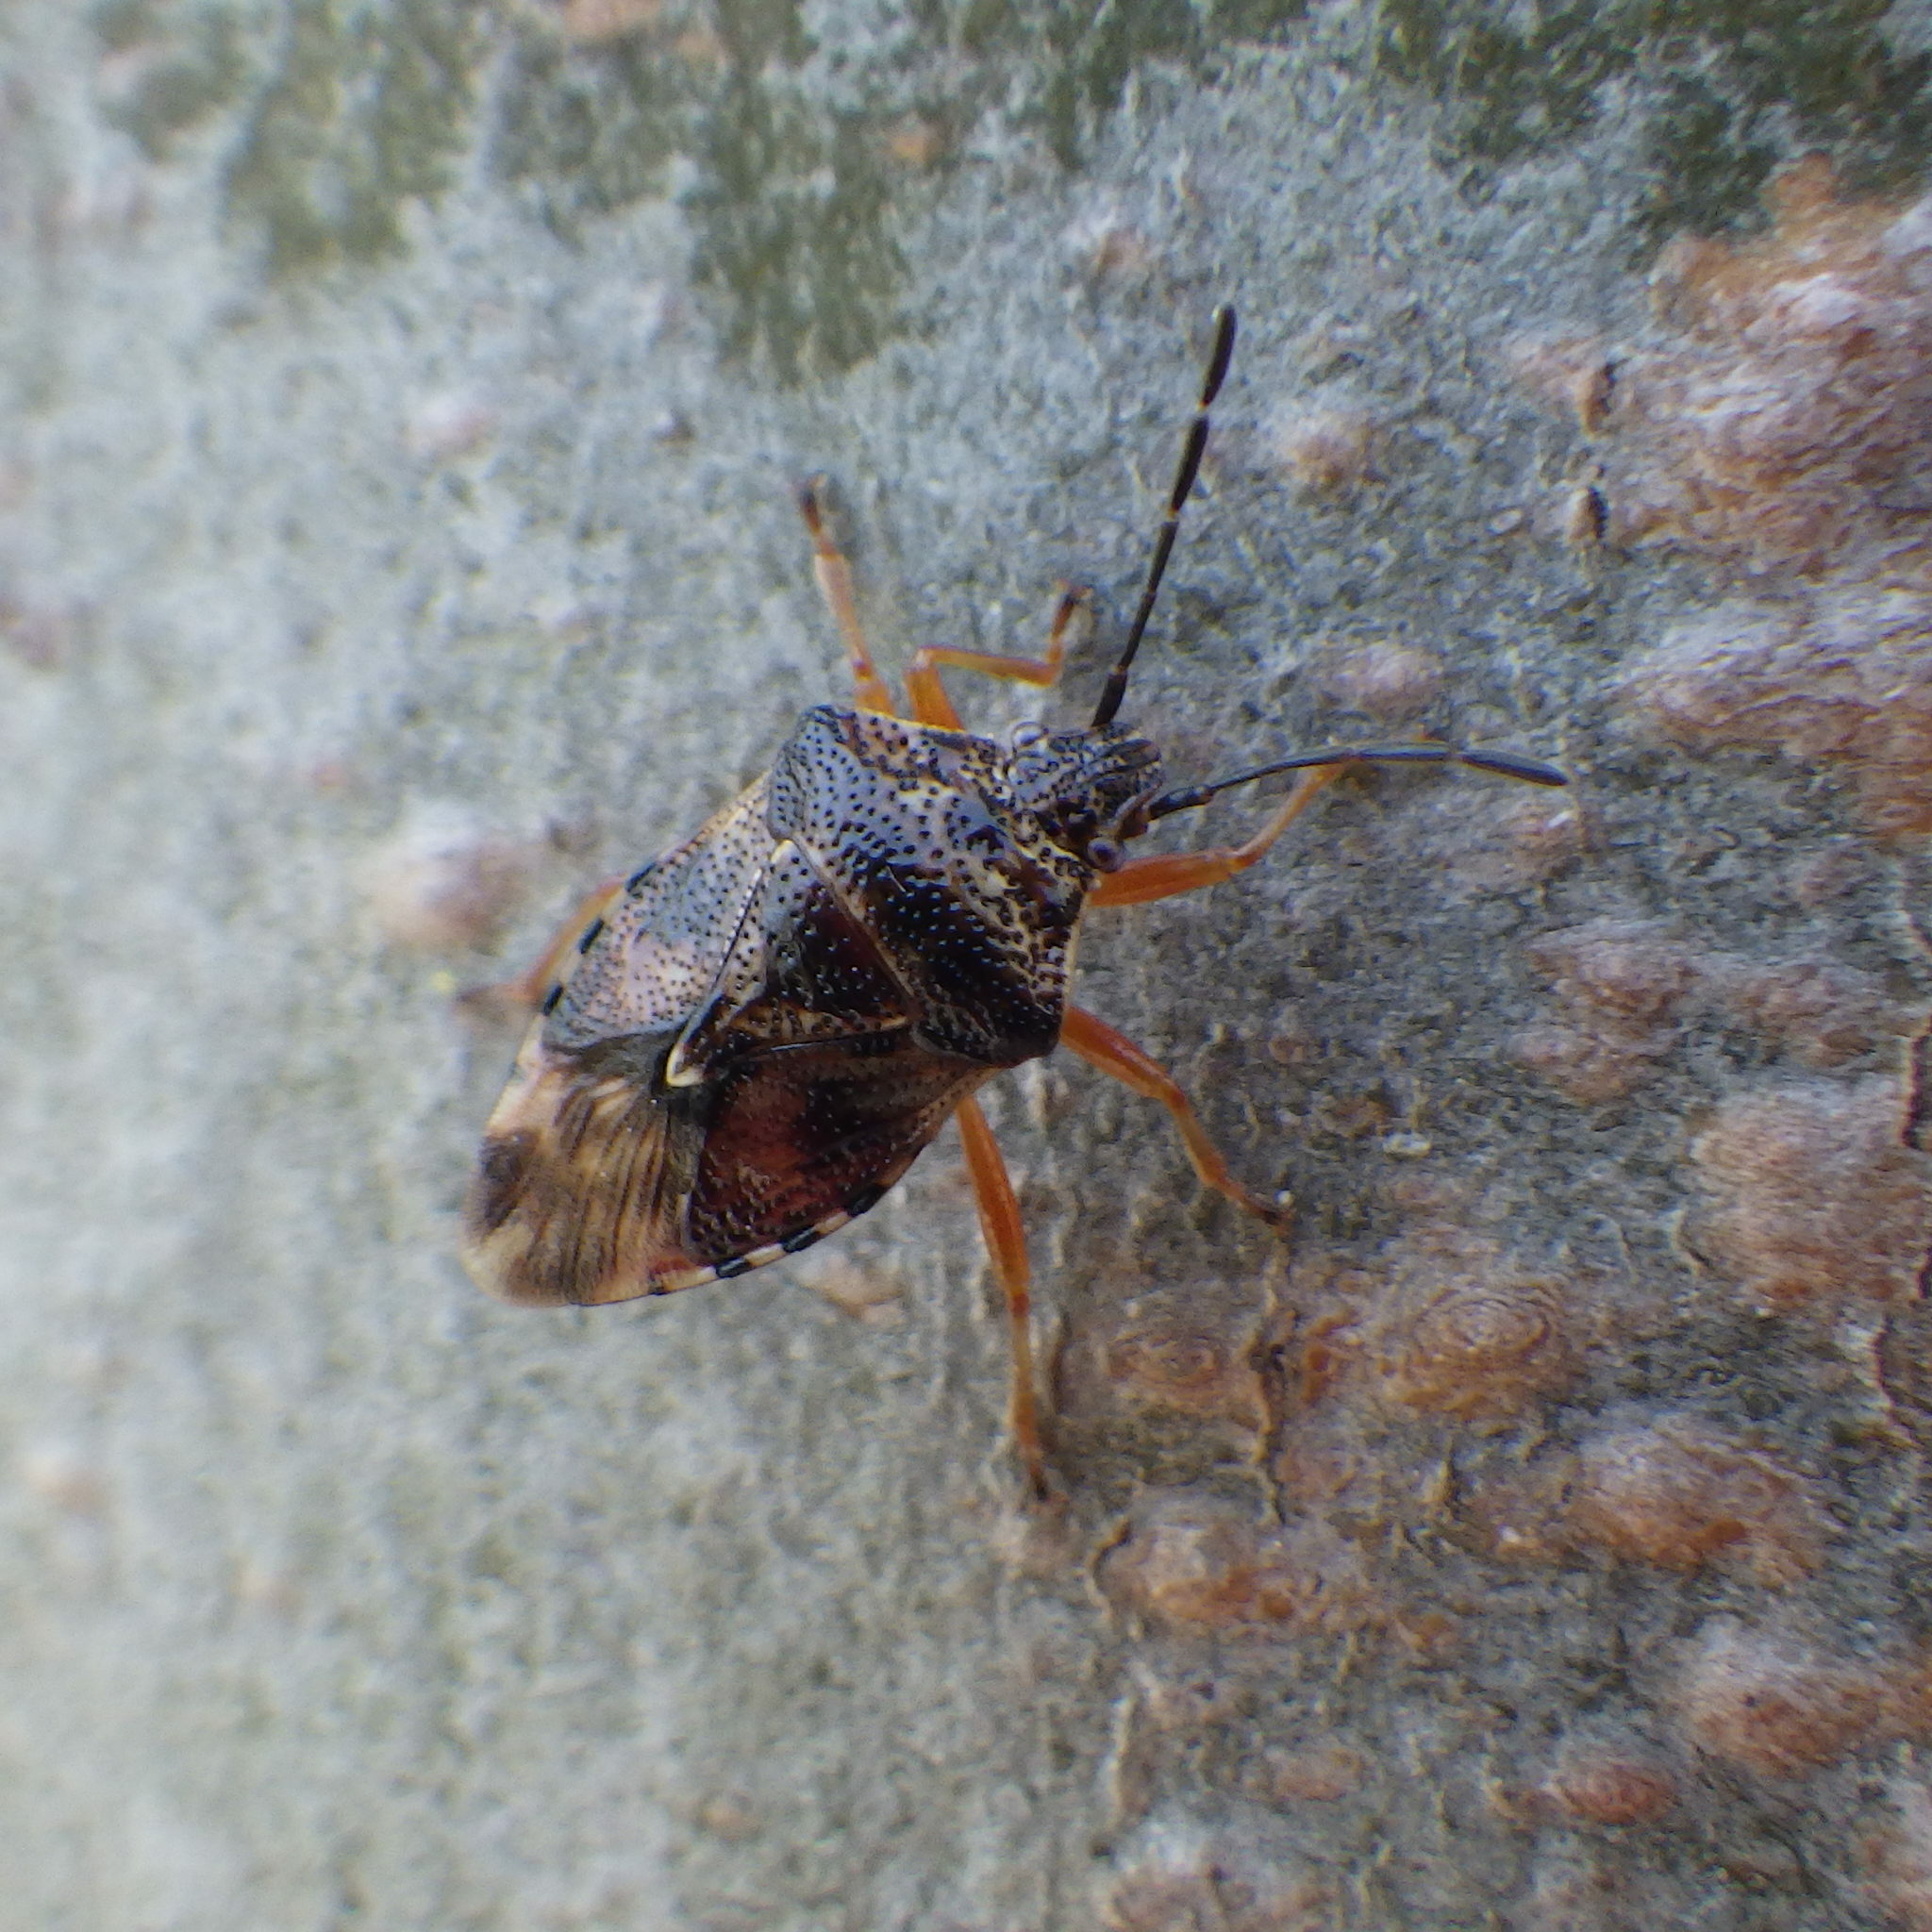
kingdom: Animalia
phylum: Arthropoda
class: Insecta
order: Hemiptera
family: Acanthosomatidae
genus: Elasmucha
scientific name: Elasmucha lateralis
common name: Shield bug
